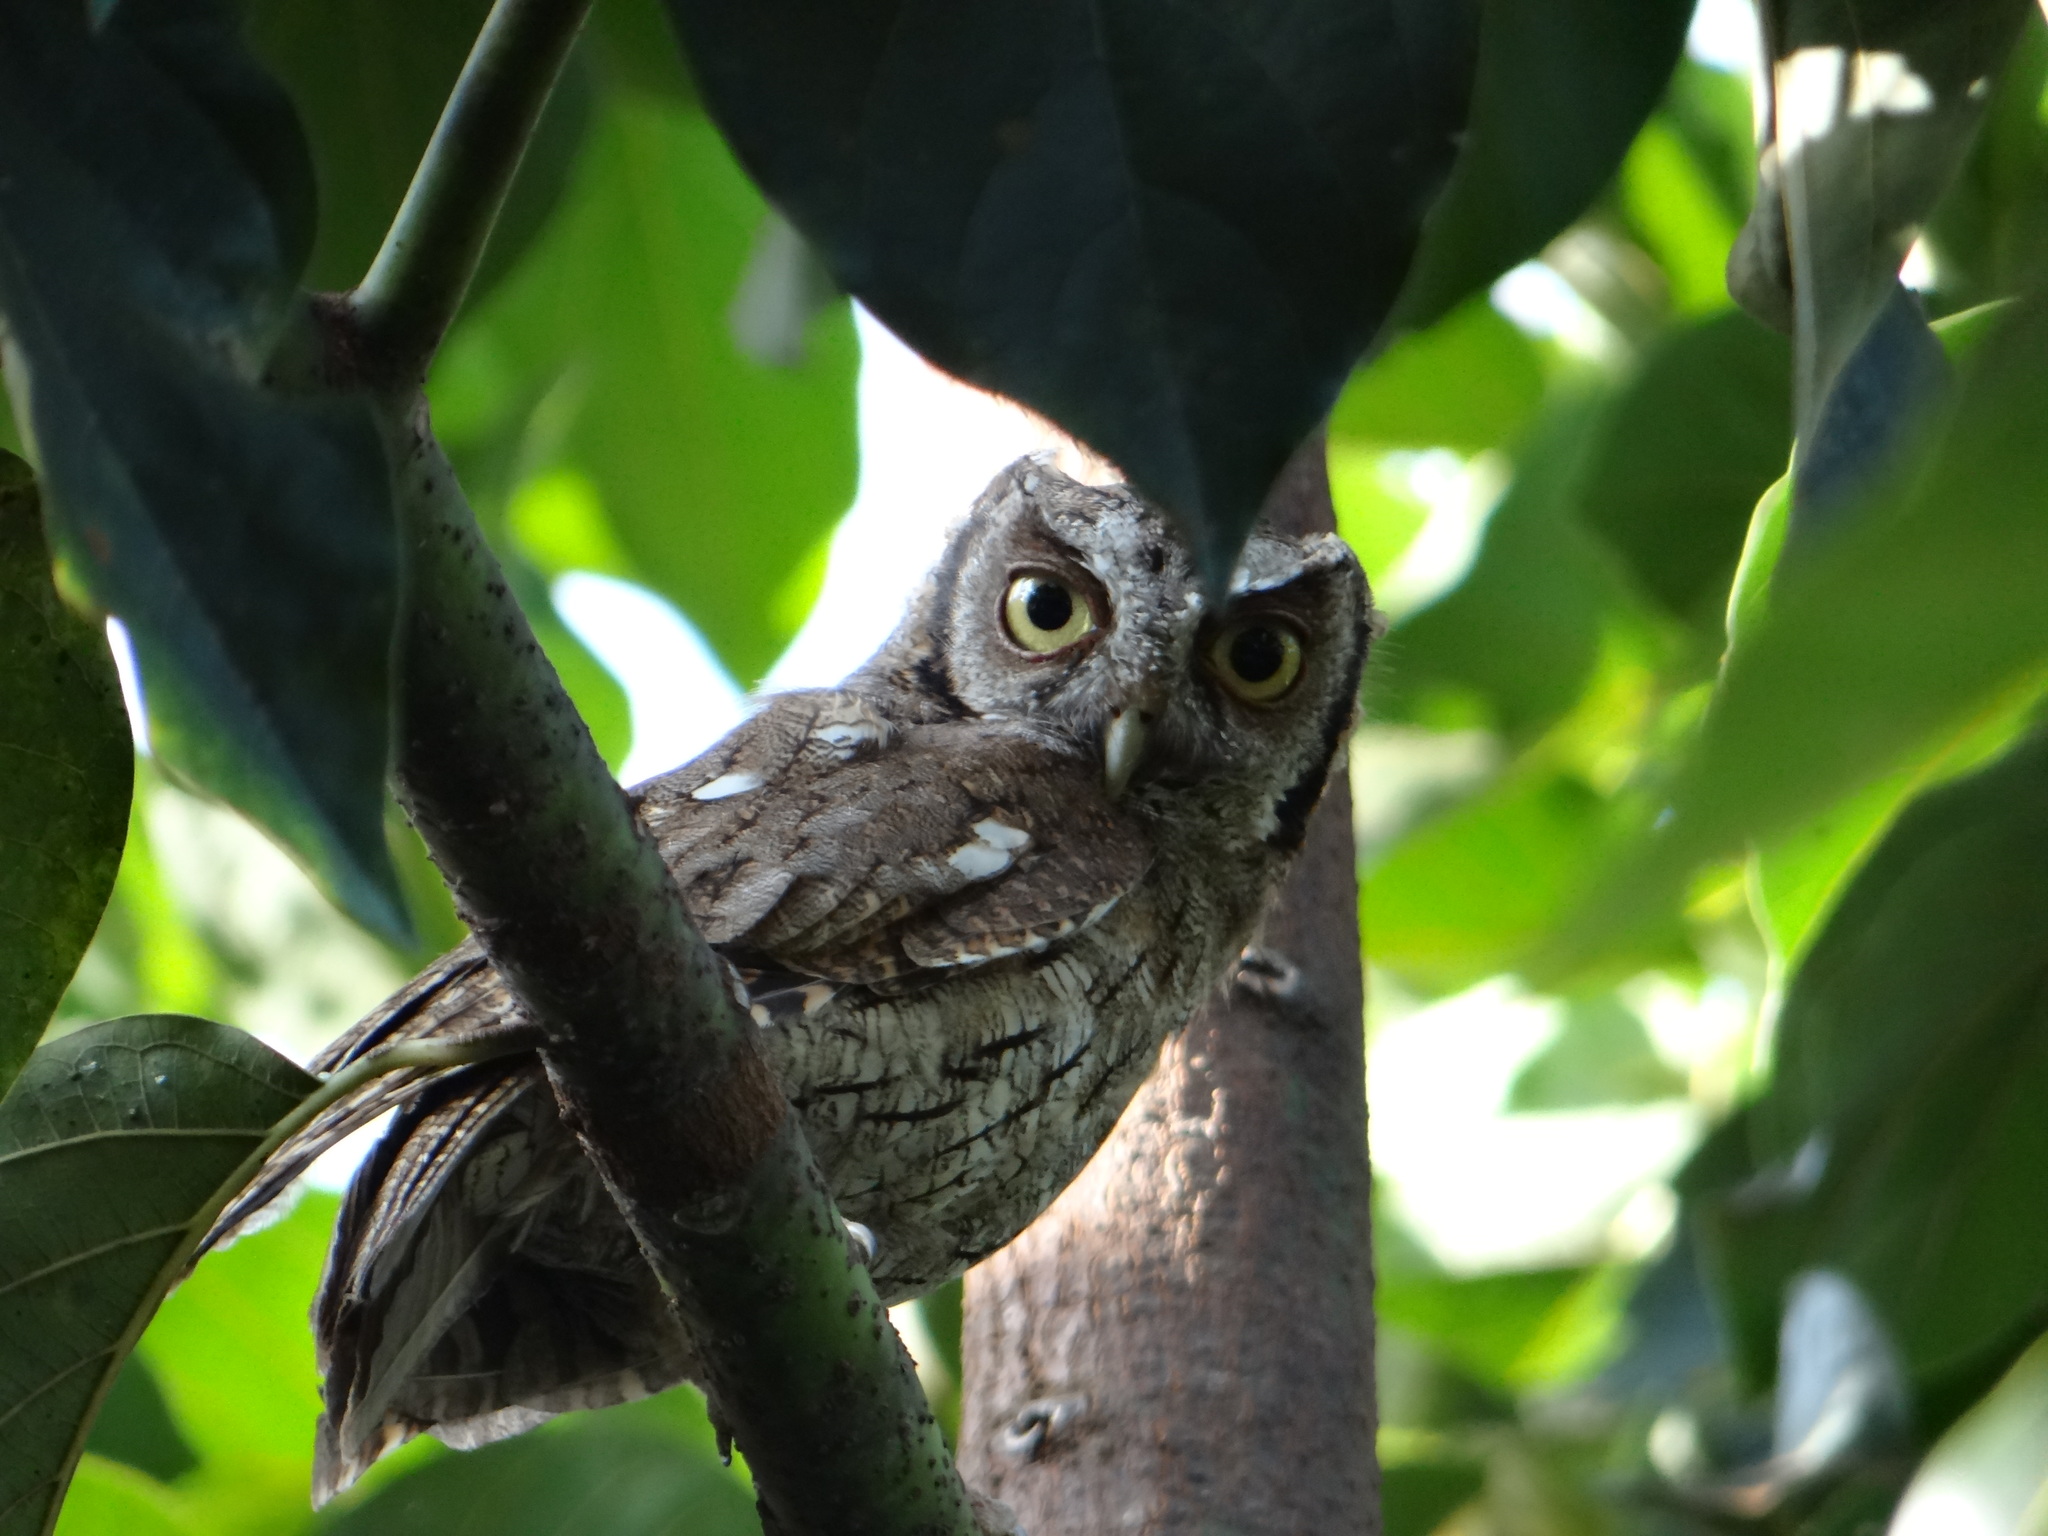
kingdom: Animalia
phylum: Chordata
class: Aves
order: Strigiformes
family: Strigidae
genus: Megascops
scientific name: Megascops choliba
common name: Tropical screech-owl
